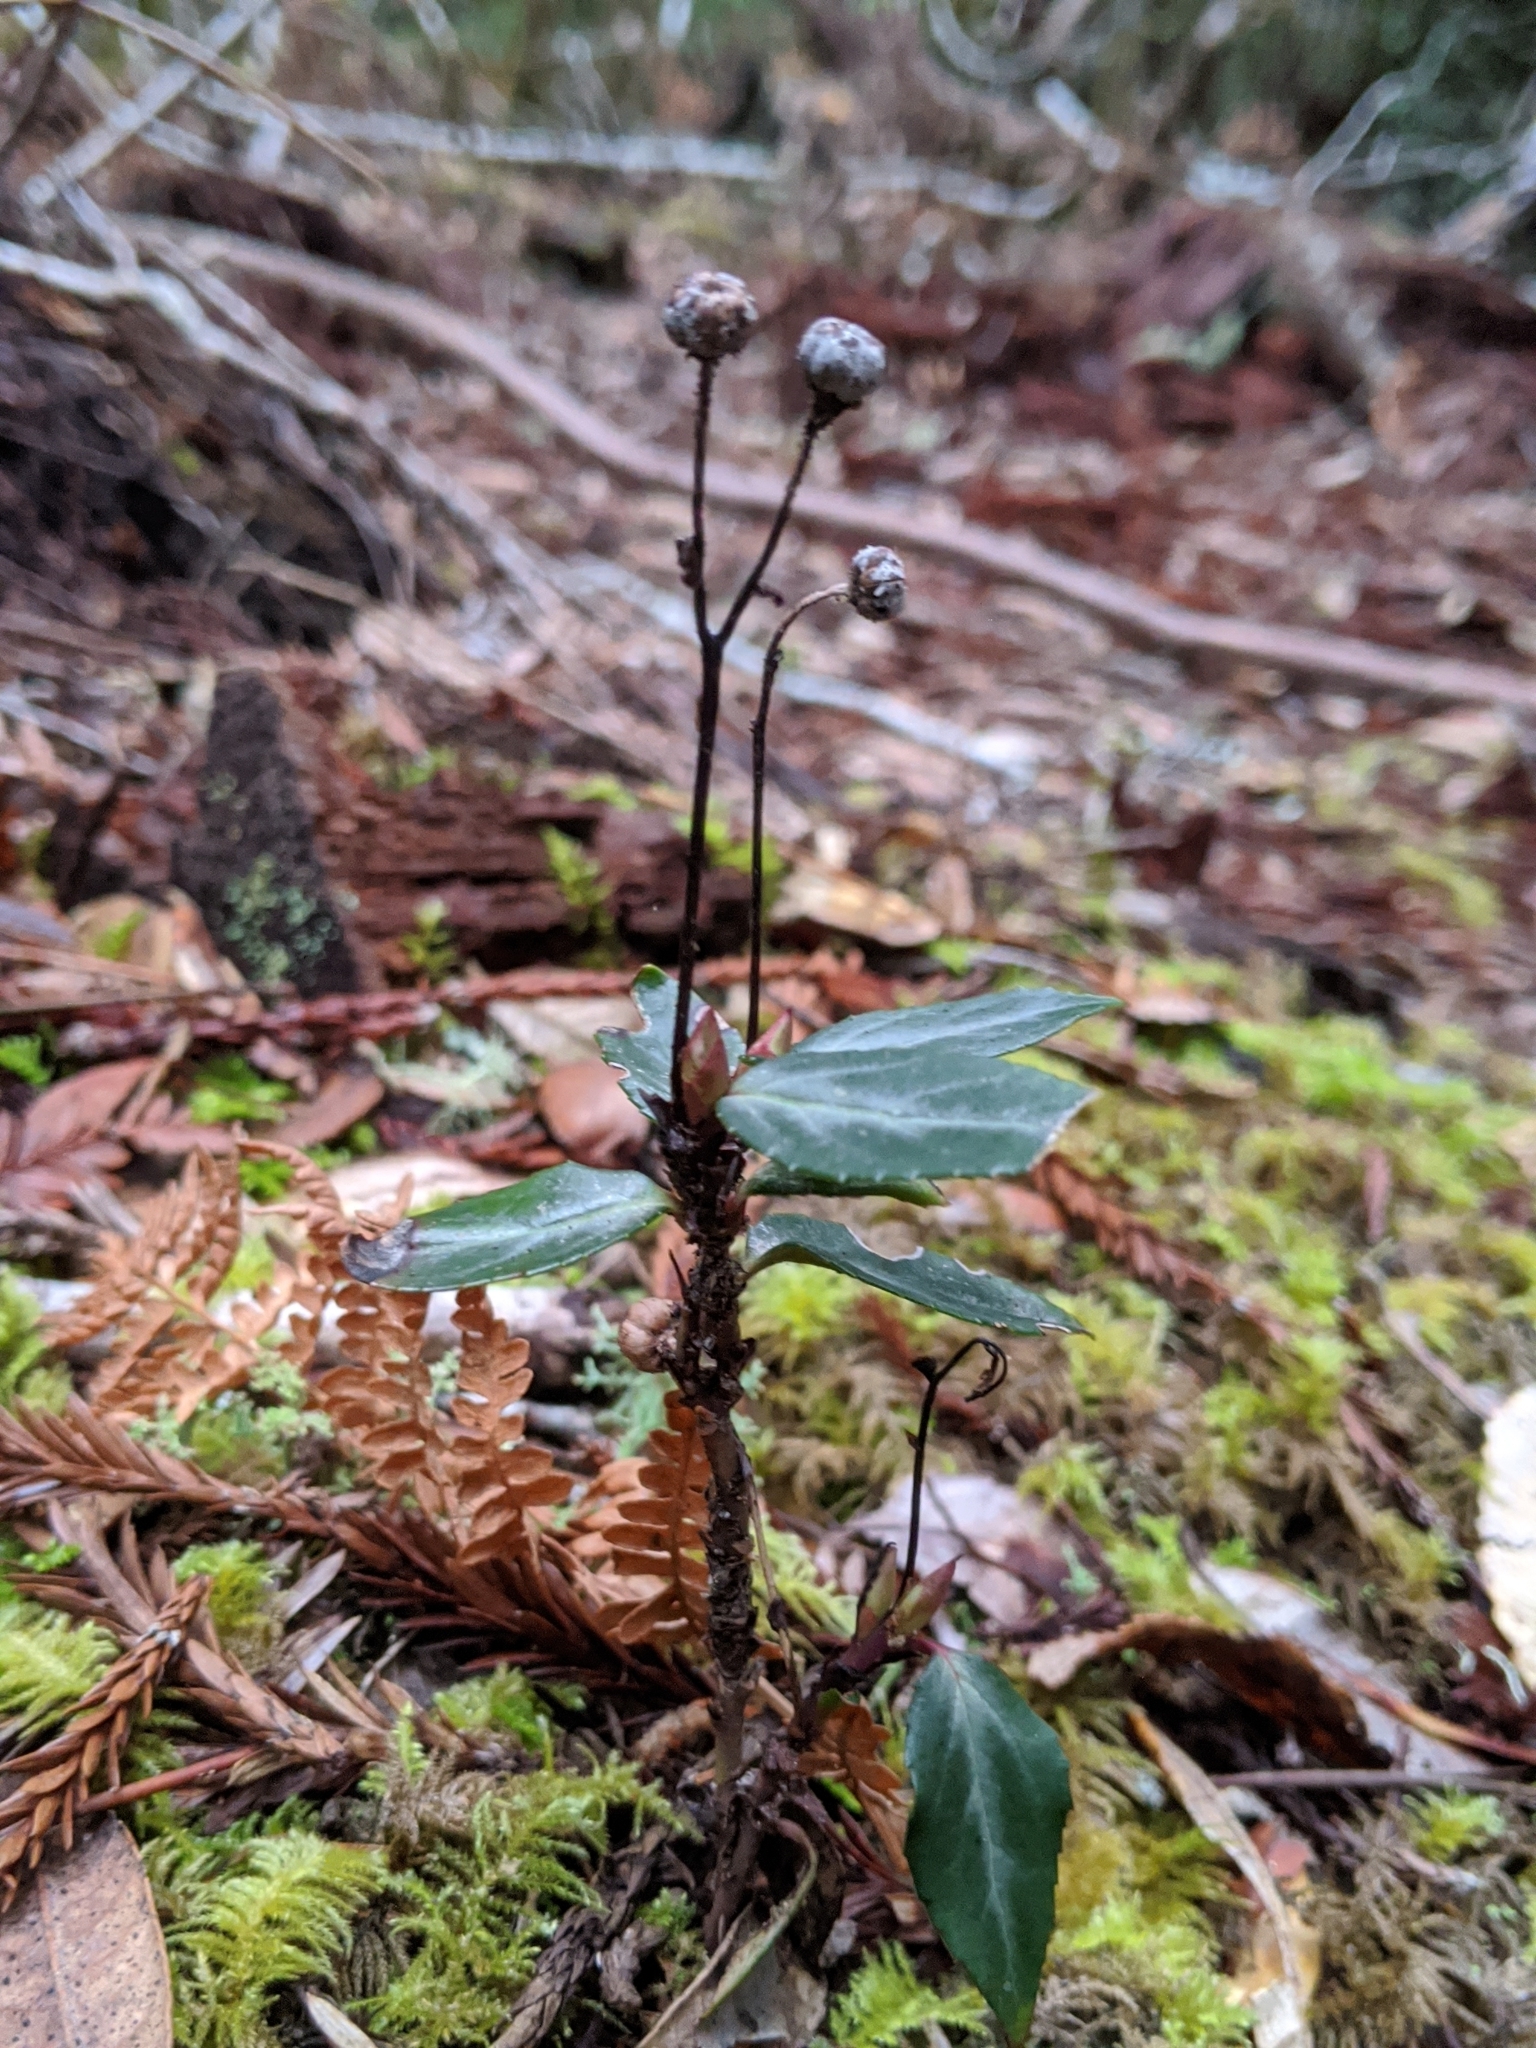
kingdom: Plantae
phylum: Tracheophyta
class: Magnoliopsida
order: Ericales
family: Ericaceae
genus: Chimaphila
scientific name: Chimaphila menziesii
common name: Menzies' pipsissewa
